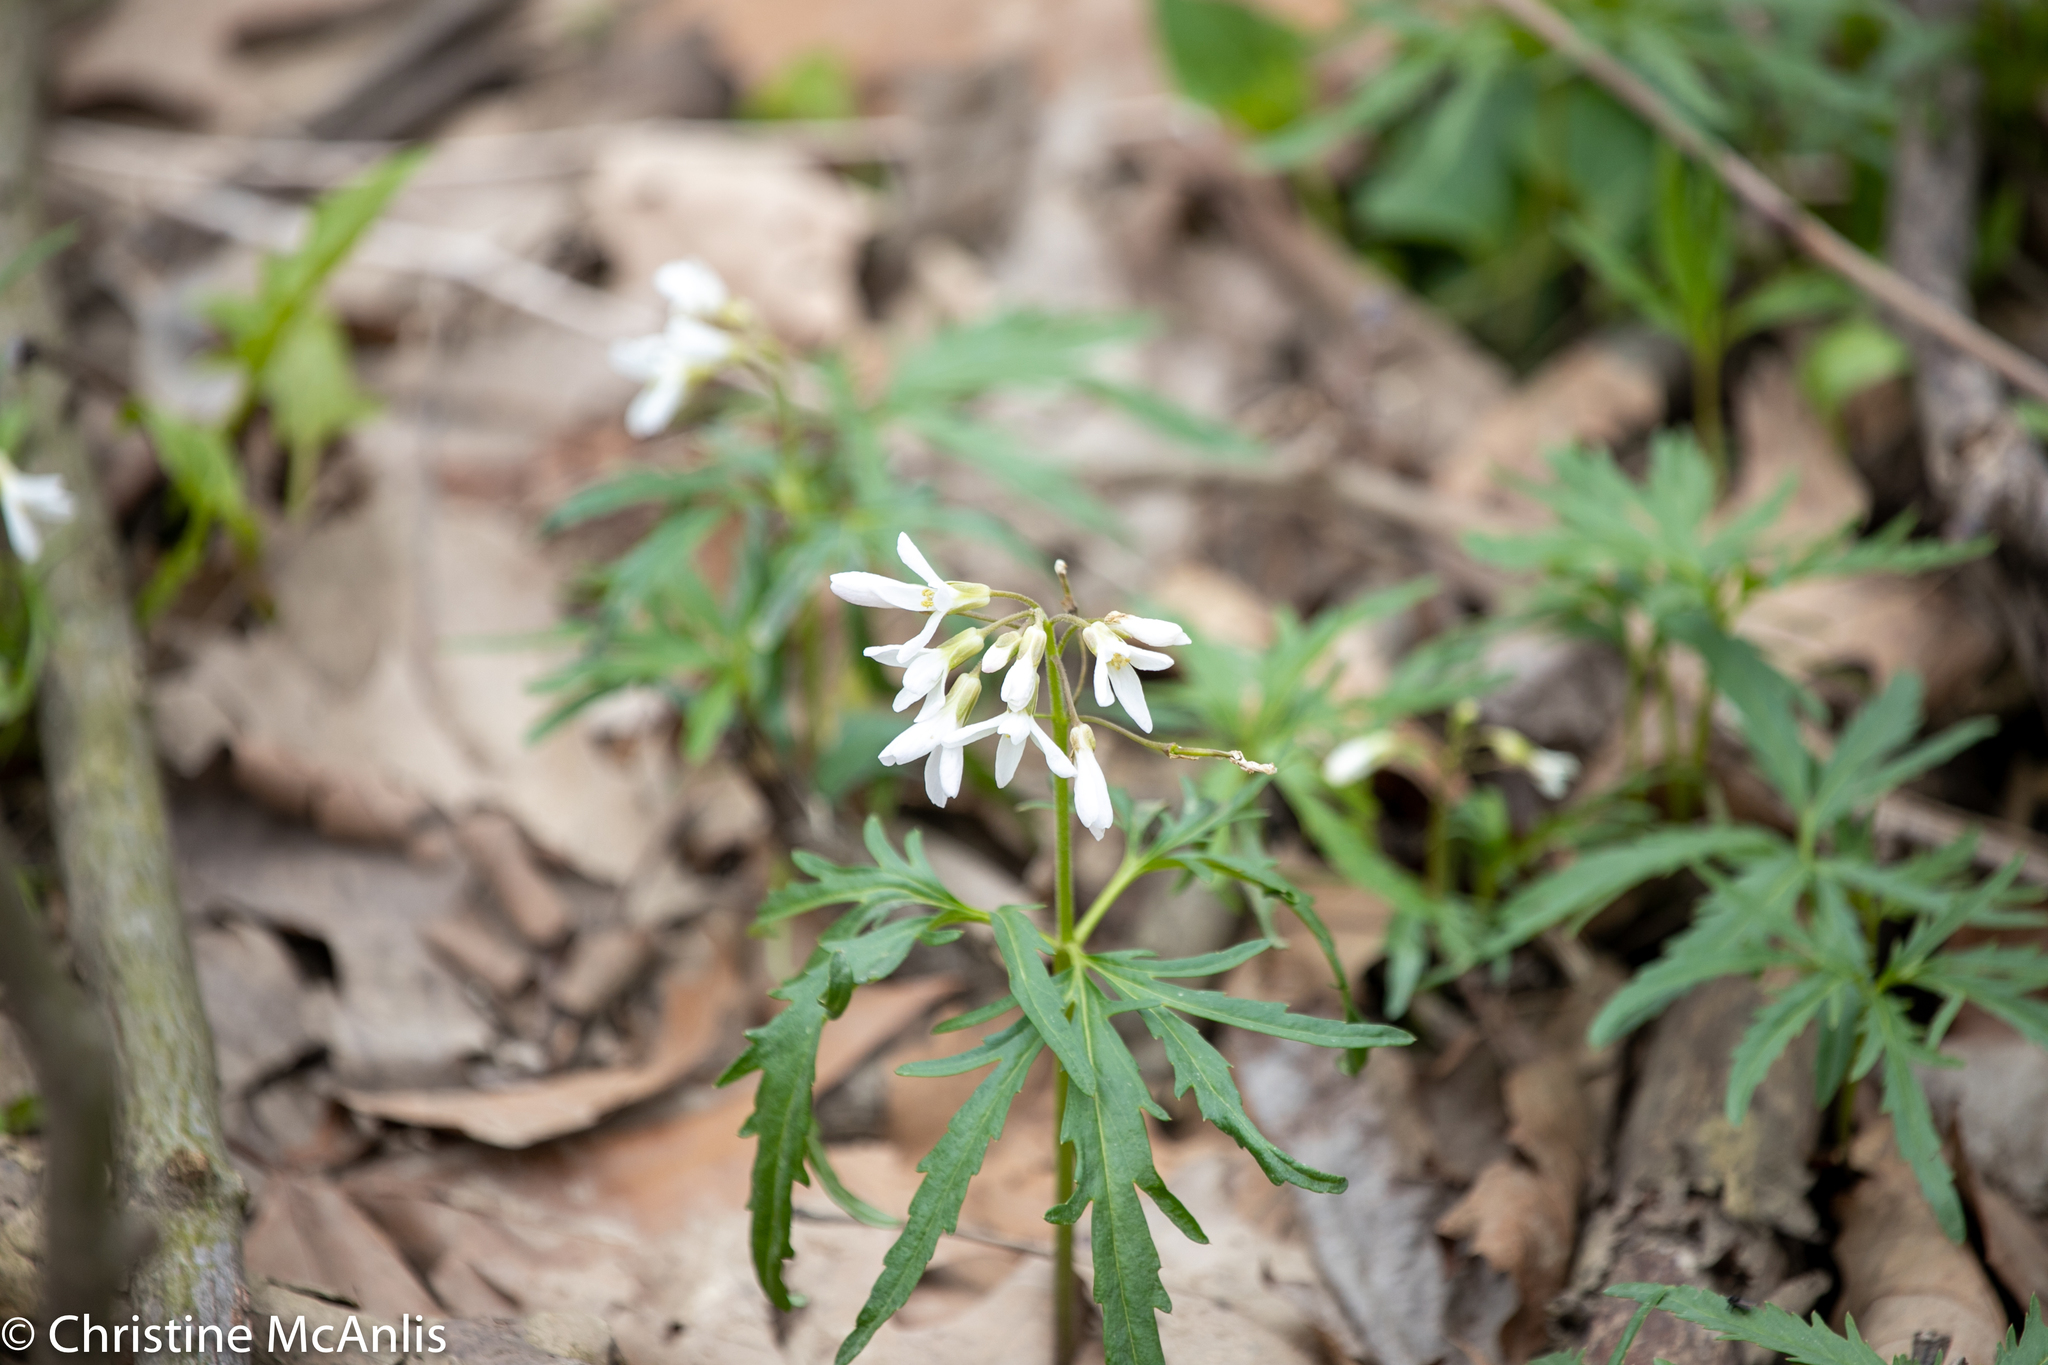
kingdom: Plantae
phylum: Tracheophyta
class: Magnoliopsida
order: Brassicales
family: Brassicaceae
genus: Cardamine
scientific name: Cardamine concatenata
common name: Cut-leaf toothcup
